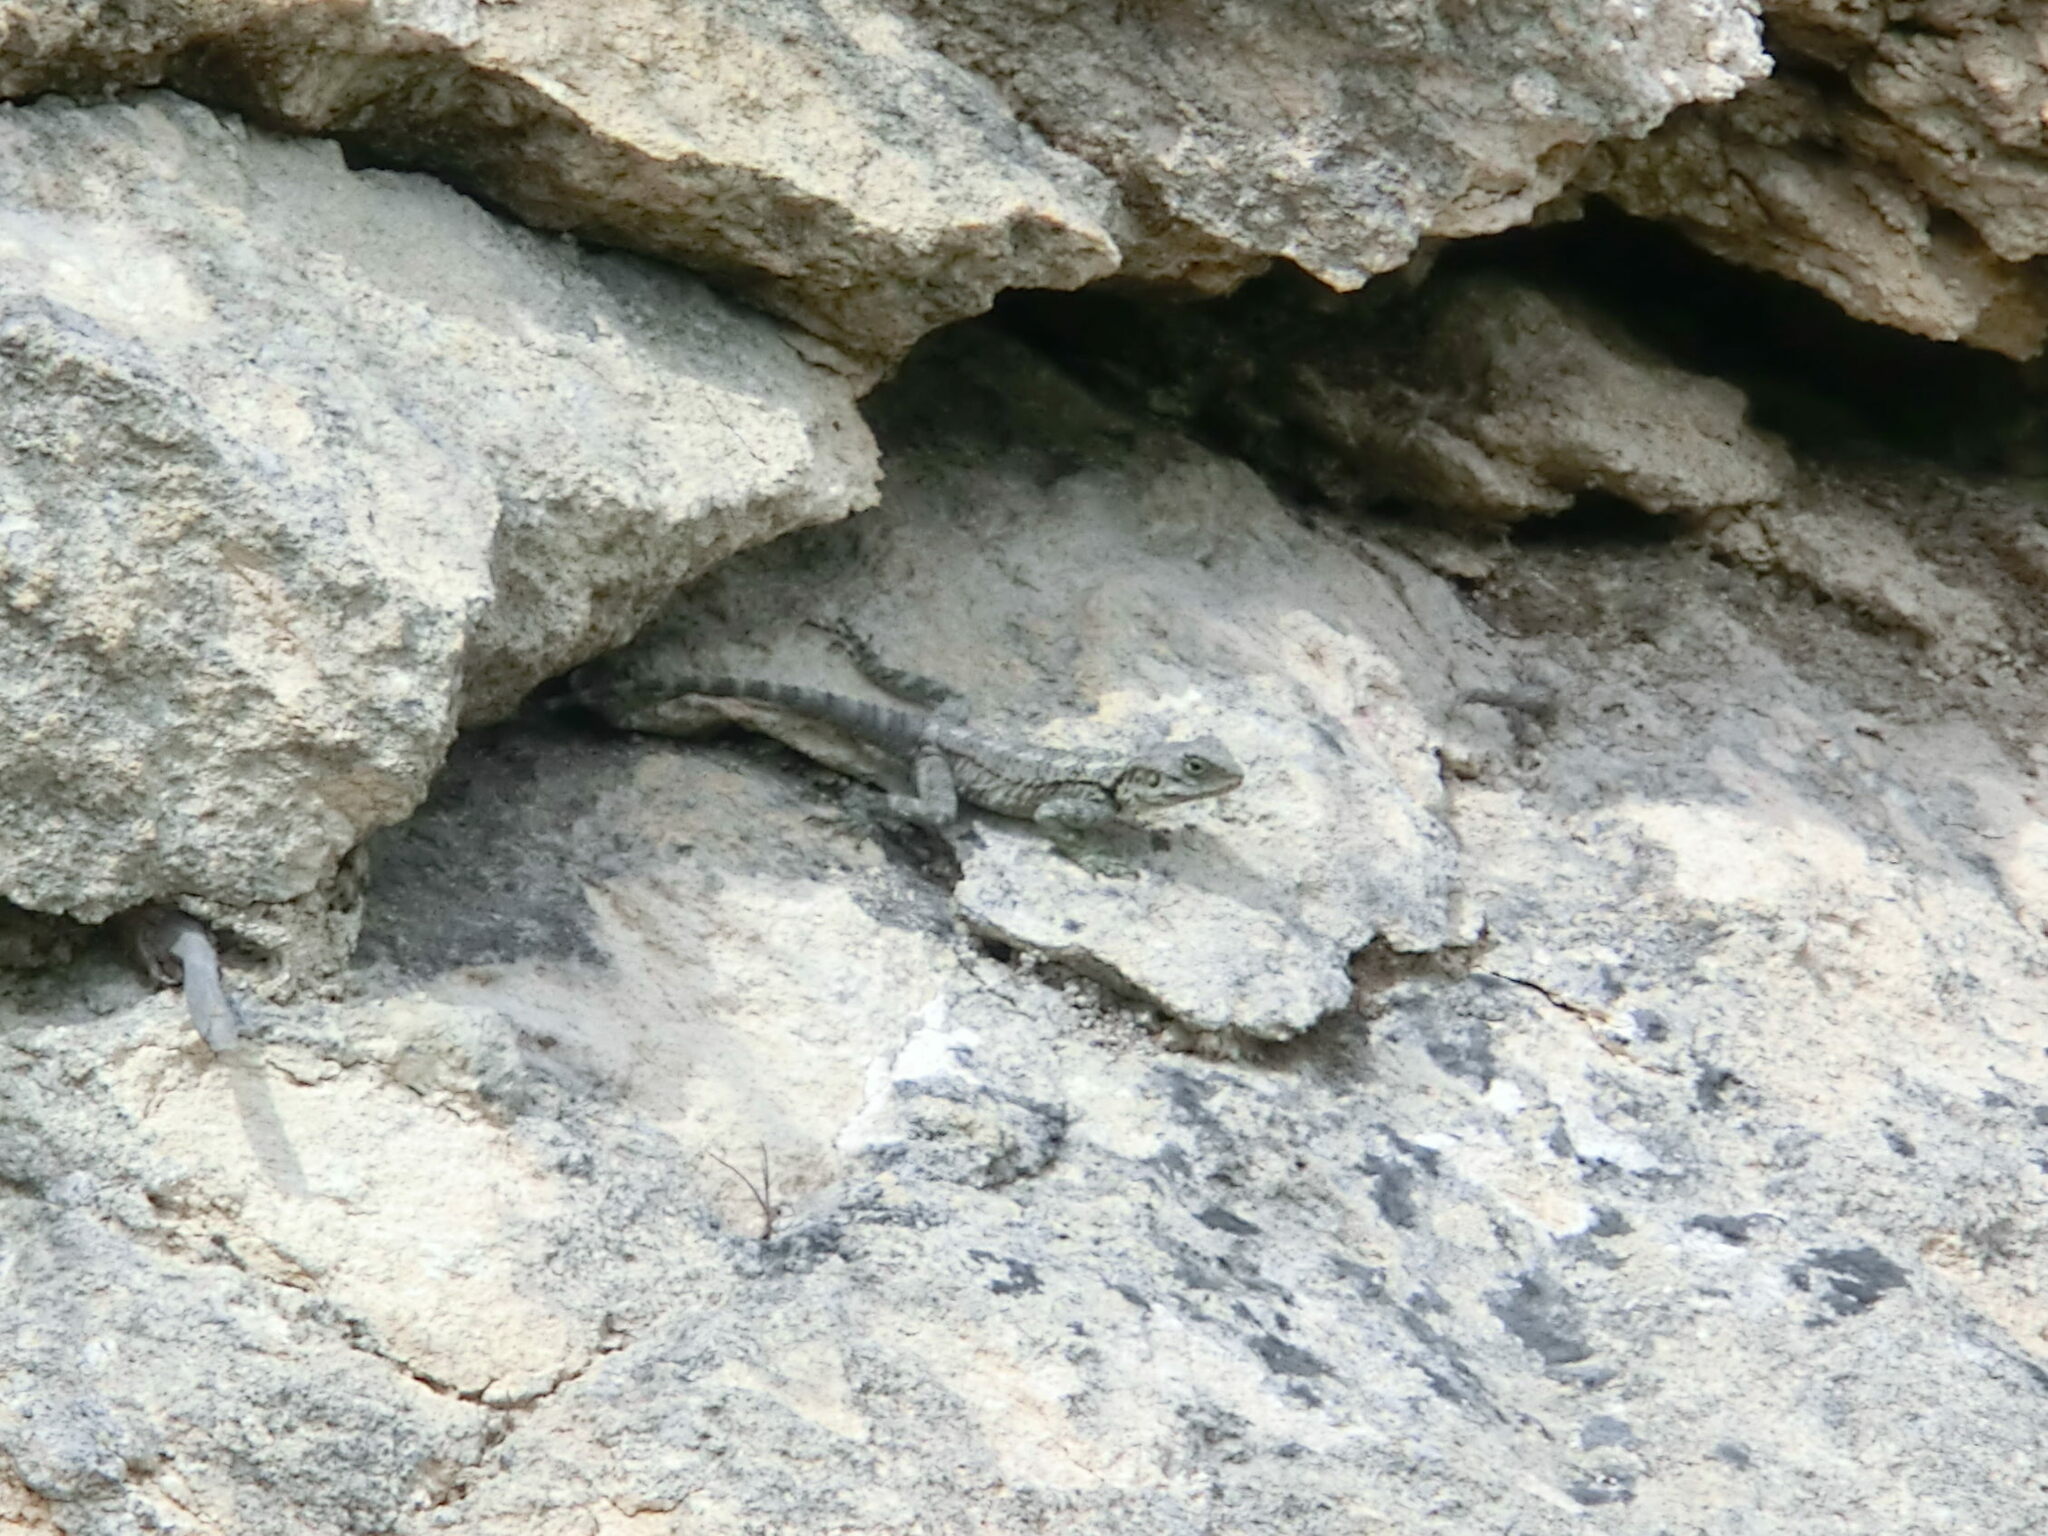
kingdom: Animalia
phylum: Chordata
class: Squamata
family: Agamidae
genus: Laudakia
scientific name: Laudakia
